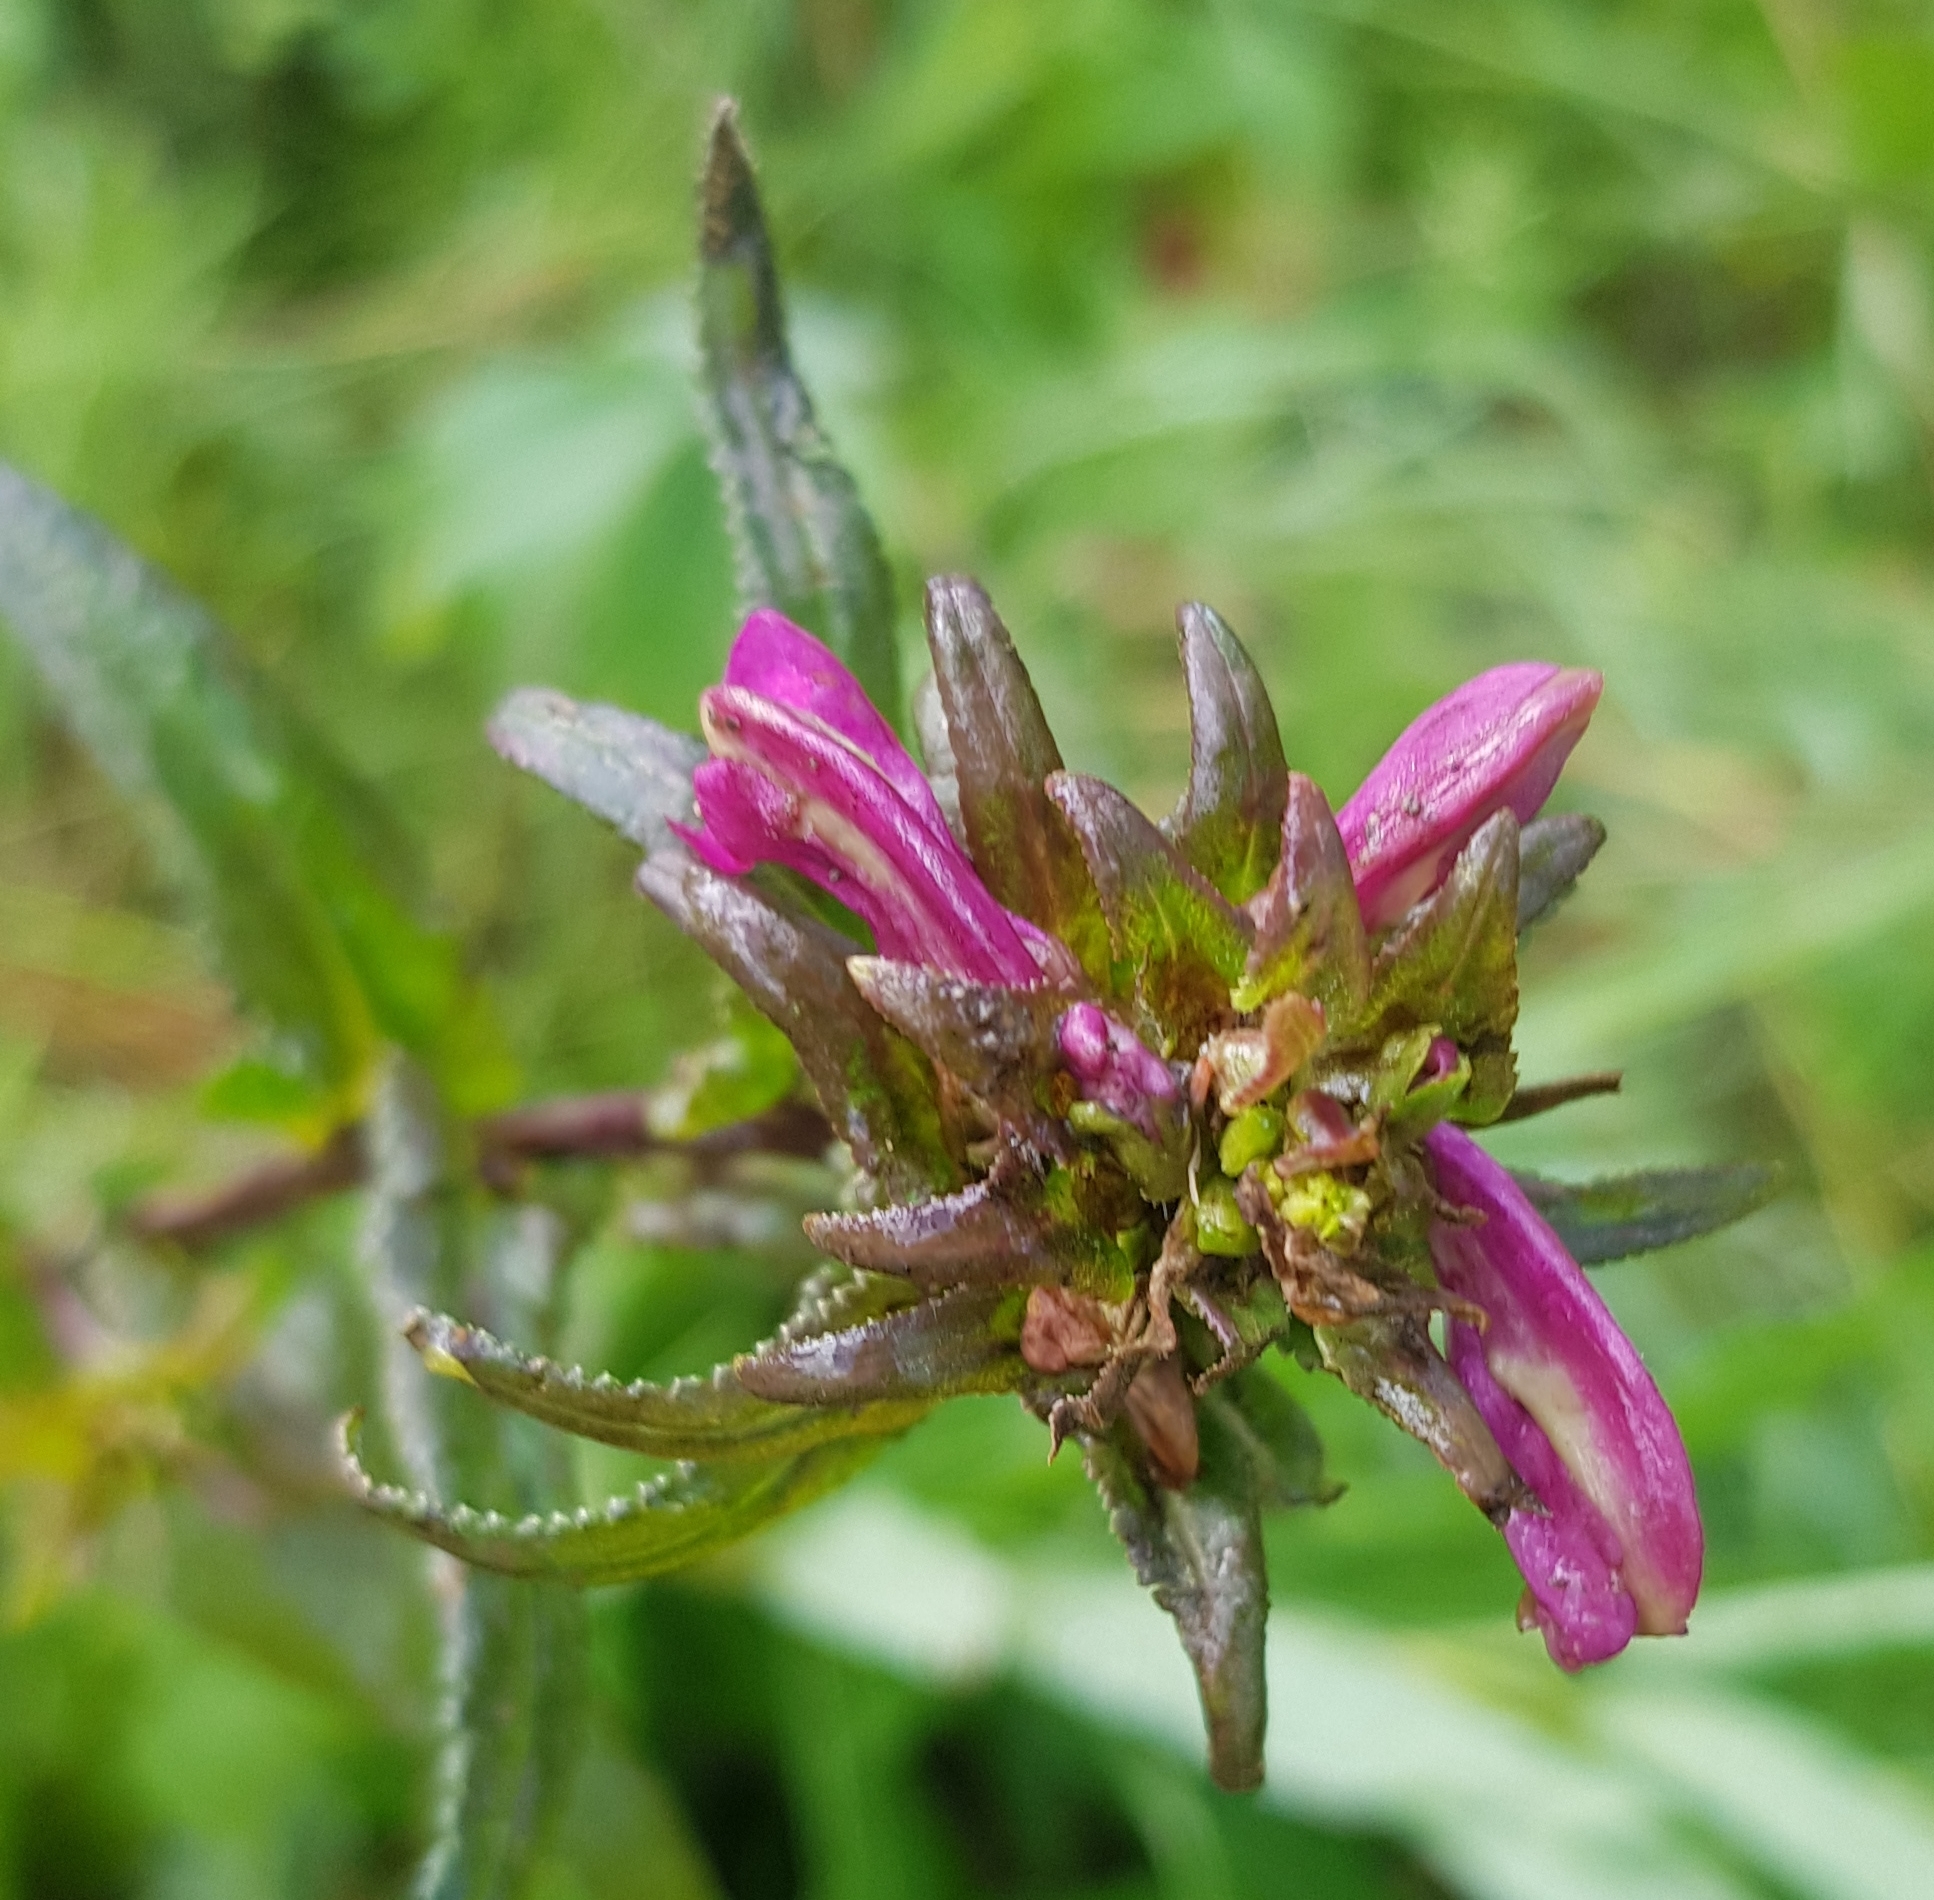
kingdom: Plantae
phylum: Tracheophyta
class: Magnoliopsida
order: Lamiales
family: Orobanchaceae
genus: Pedicularis
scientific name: Pedicularis resupinata
